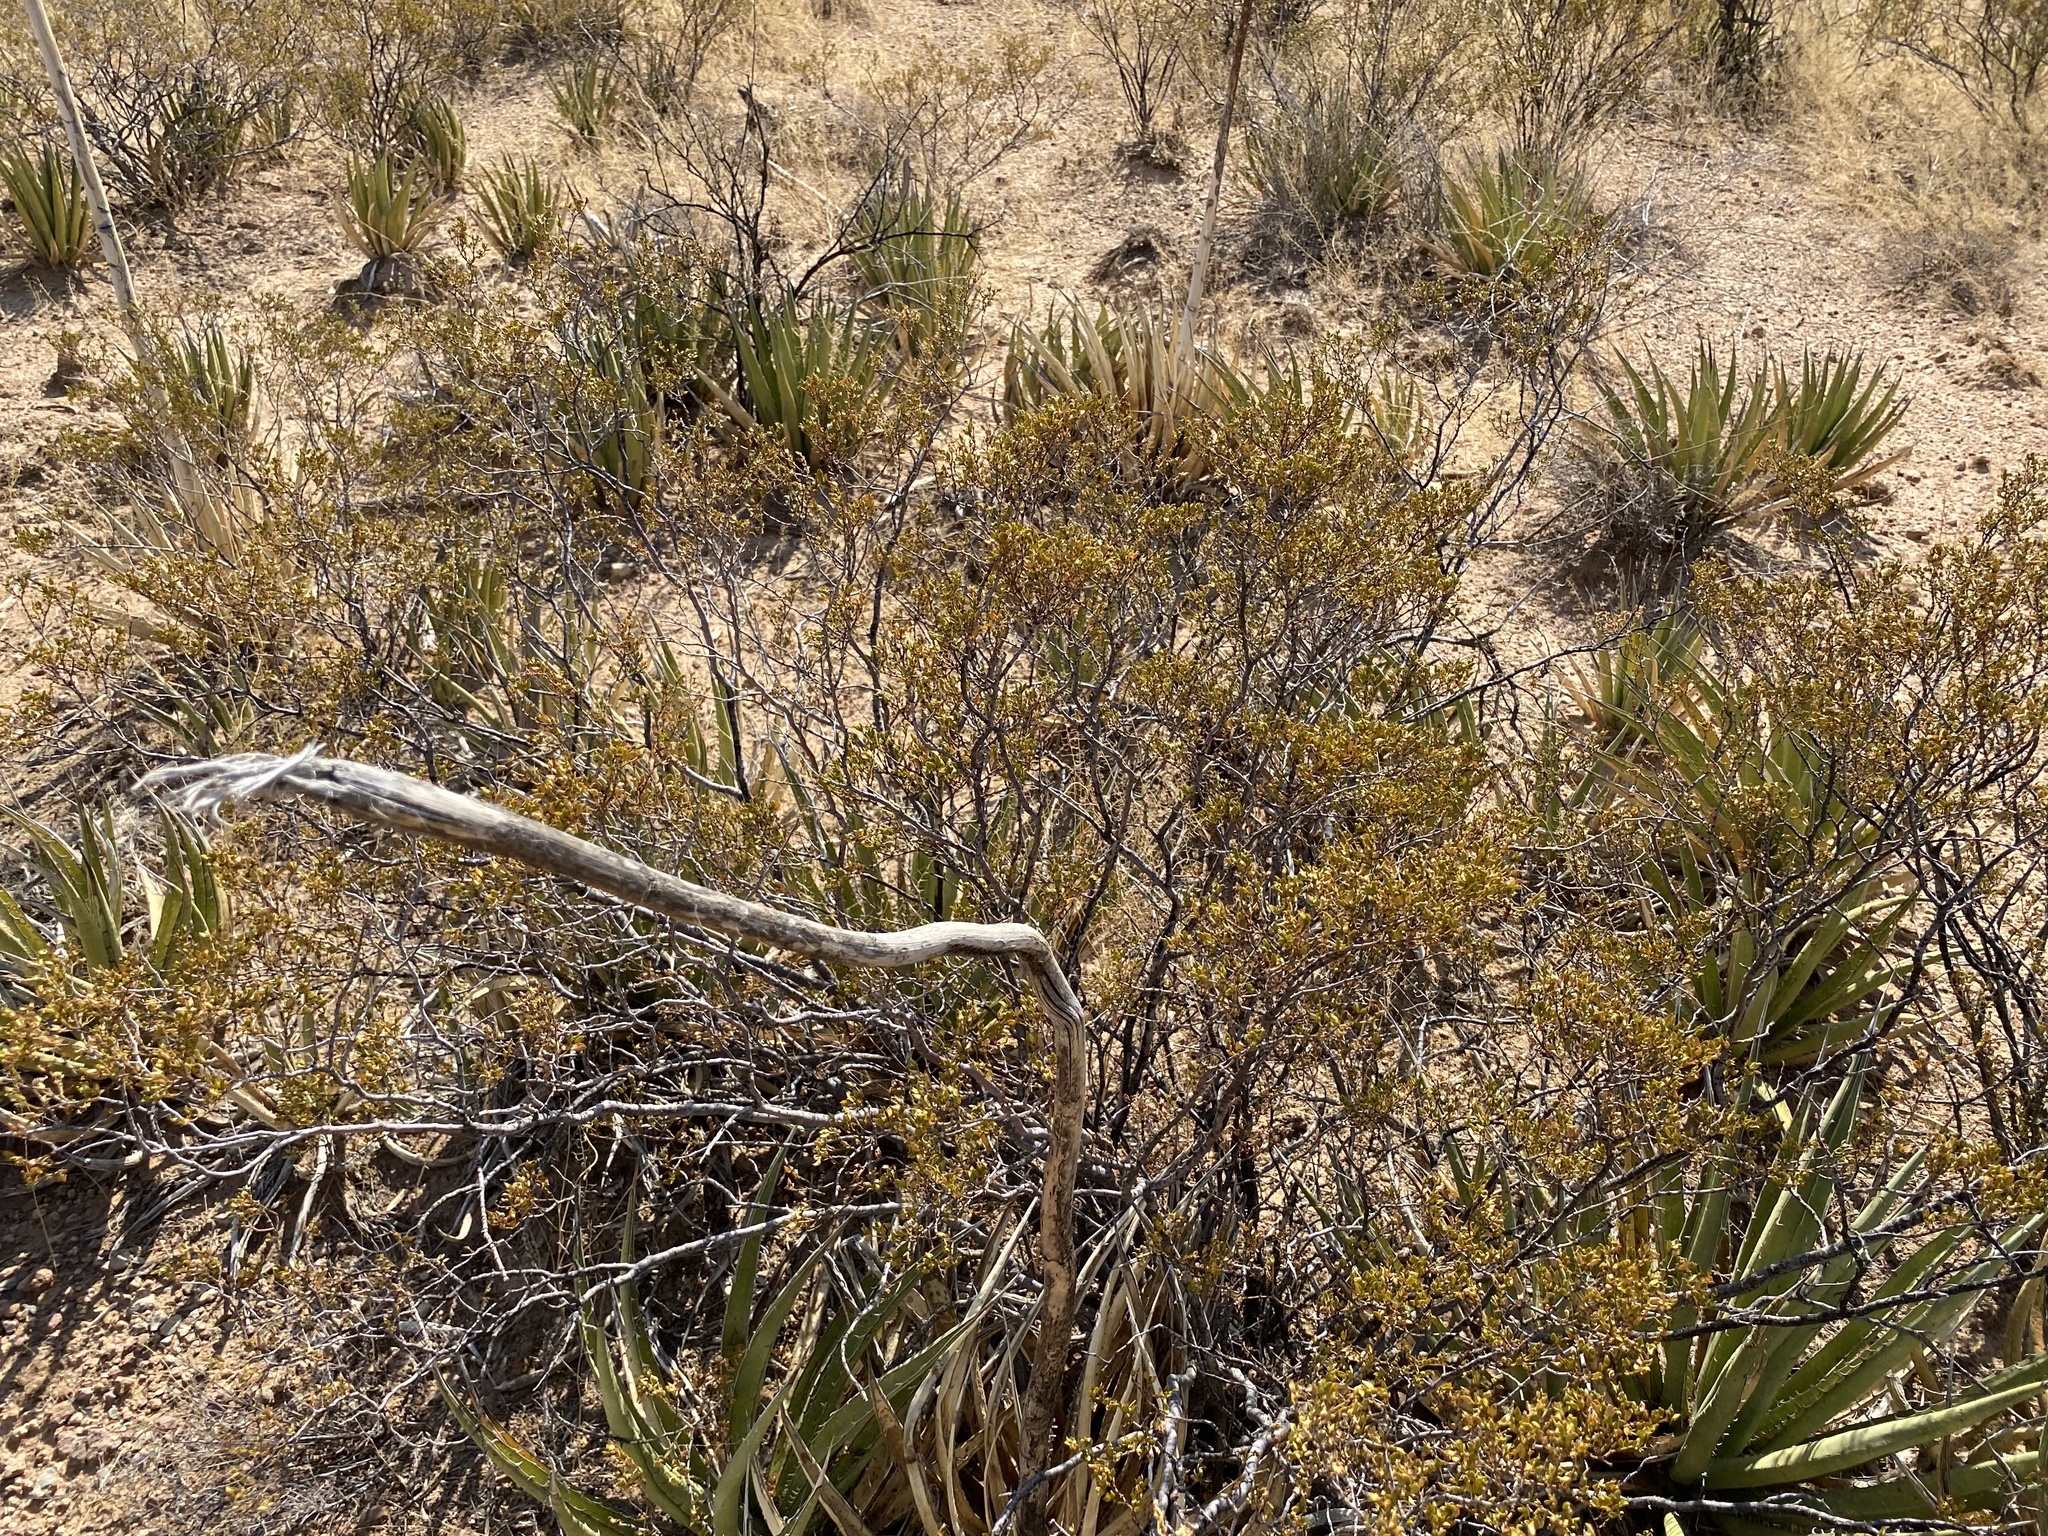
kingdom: Plantae
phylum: Tracheophyta
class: Magnoliopsida
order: Zygophyllales
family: Zygophyllaceae
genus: Larrea
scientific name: Larrea tridentata
